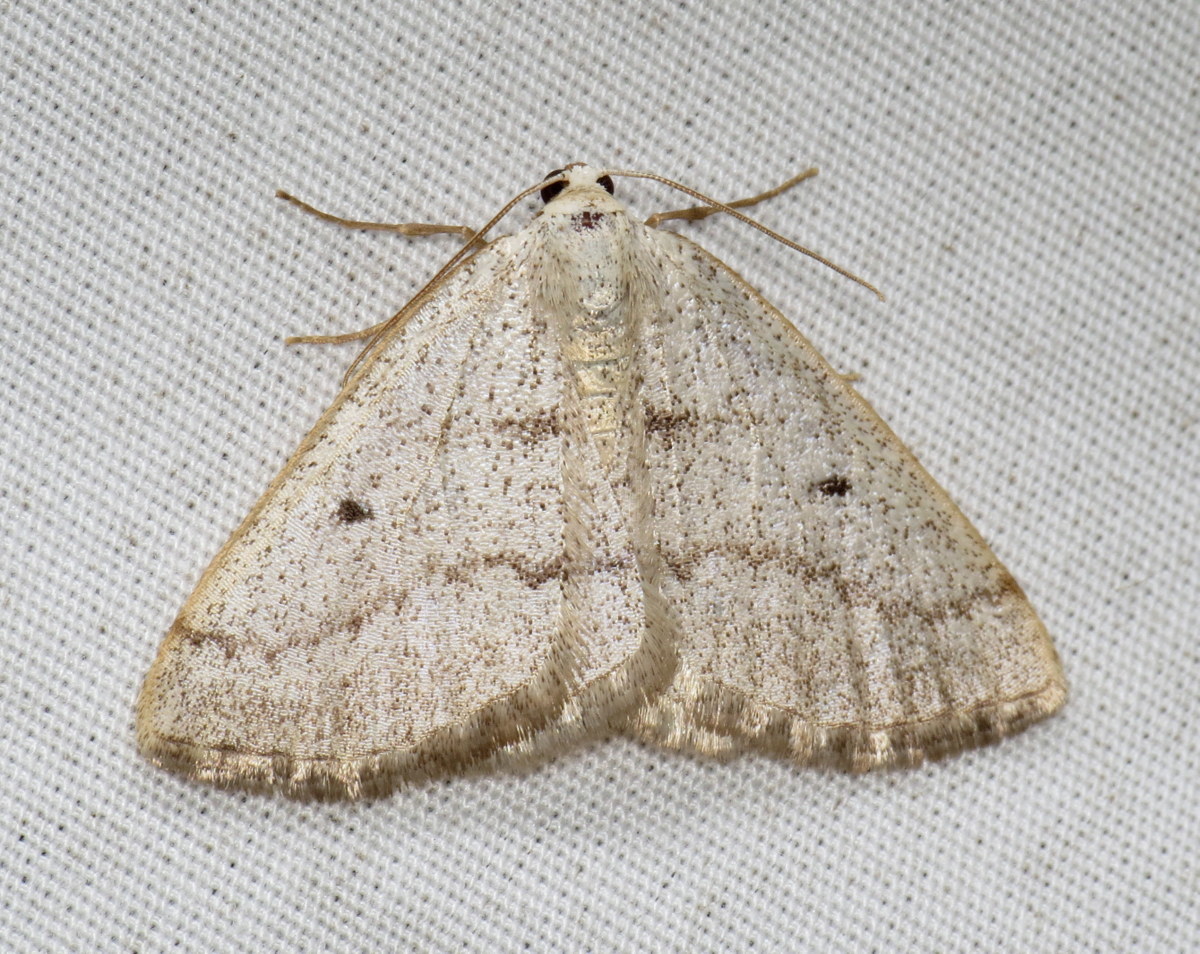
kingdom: Animalia
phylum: Arthropoda
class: Insecta
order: Lepidoptera
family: Geometridae
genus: Lomographa
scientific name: Lomographa glomeraria
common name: Gray spring moth
